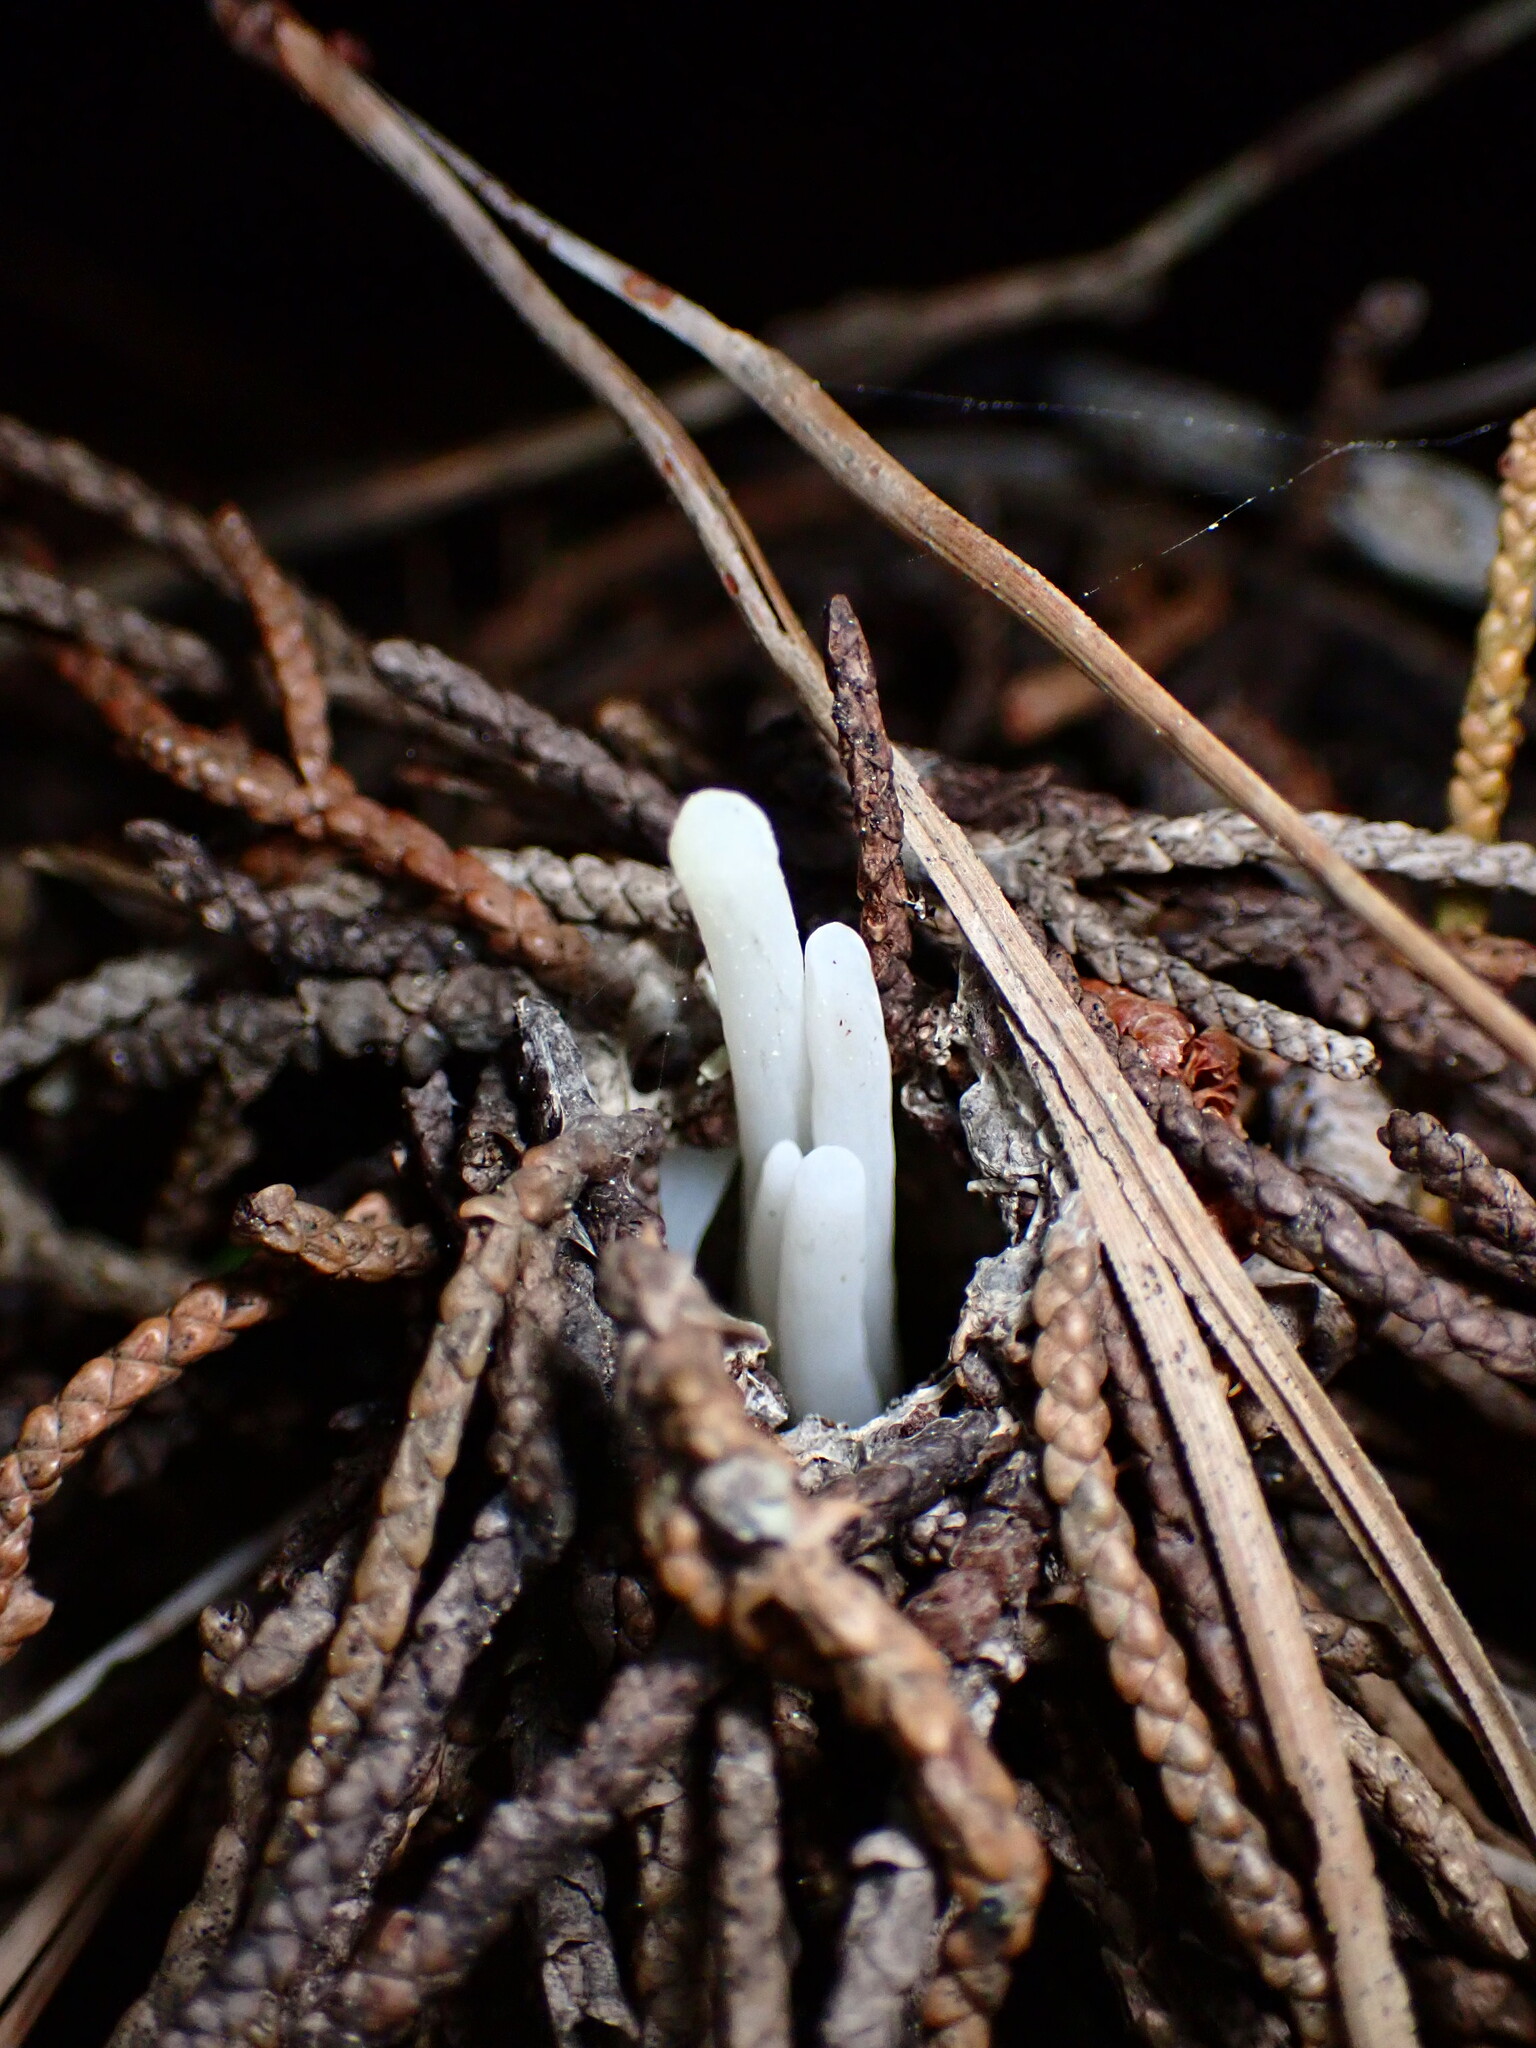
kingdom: Fungi
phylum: Basidiomycota
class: Agaricomycetes
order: Agaricales
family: Clavariaceae
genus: Clavaria
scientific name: Clavaria fragilis
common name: White spindles
